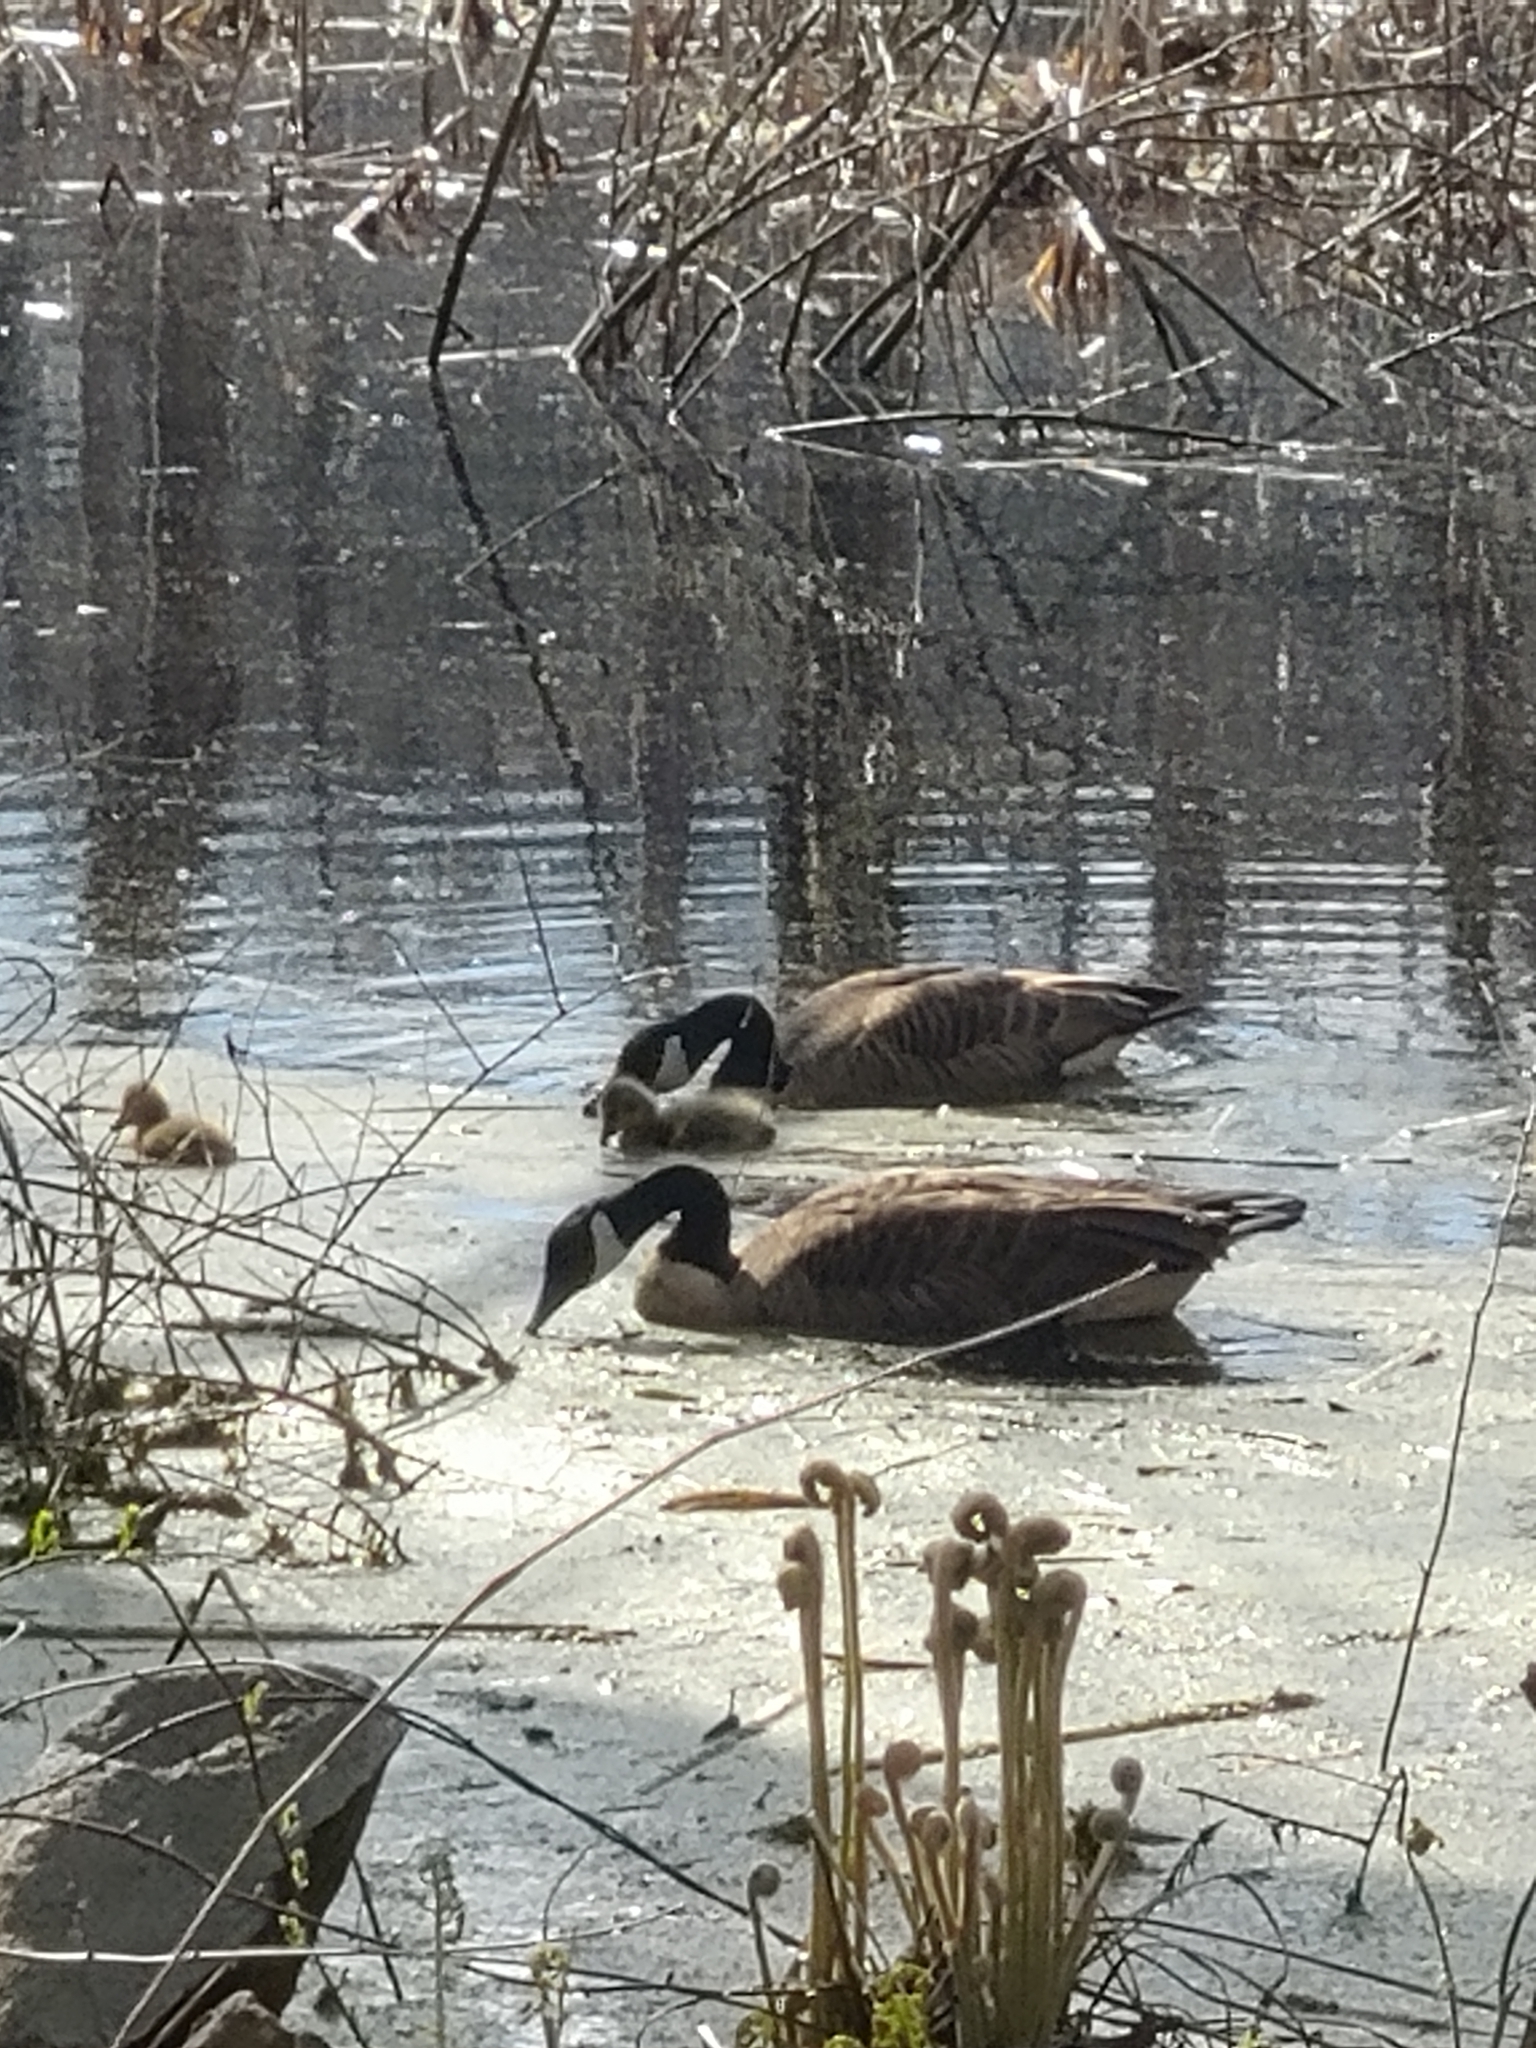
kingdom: Animalia
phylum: Chordata
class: Aves
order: Anseriformes
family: Anatidae
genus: Branta
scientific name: Branta canadensis
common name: Canada goose
